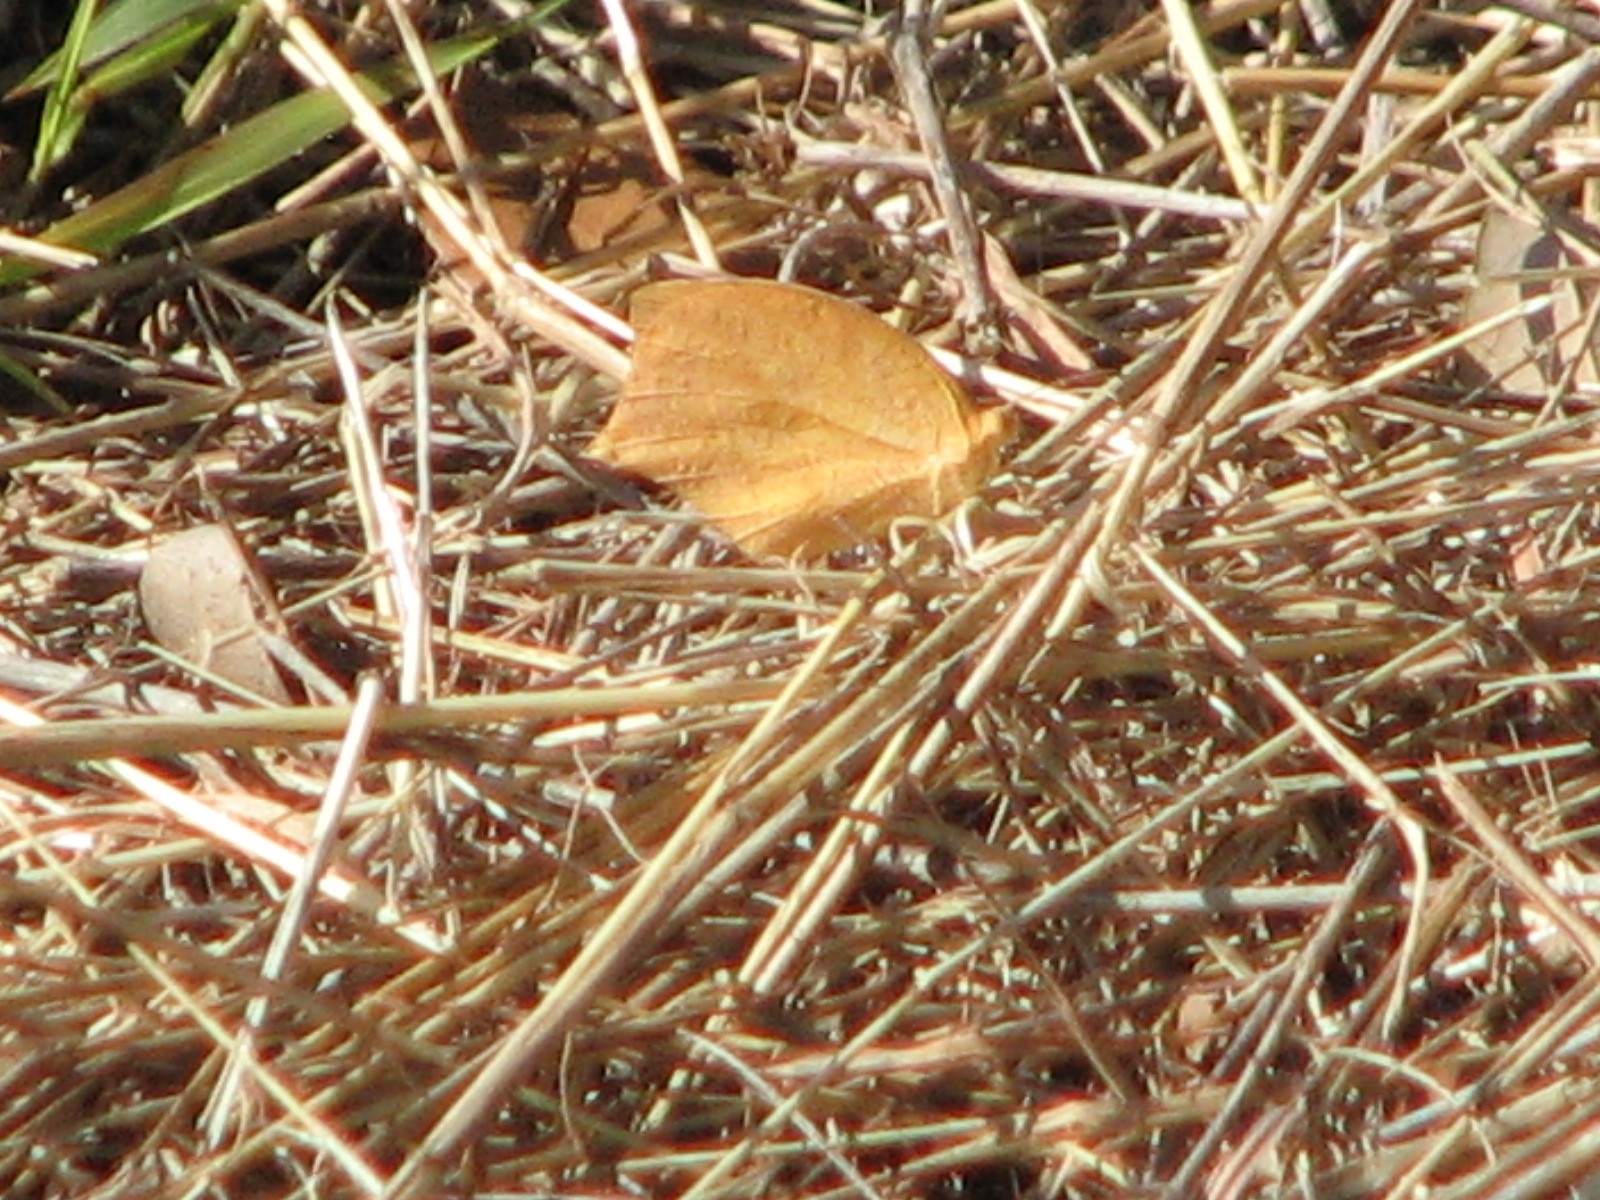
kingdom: Animalia
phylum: Arthropoda
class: Insecta
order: Lepidoptera
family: Pieridae
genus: Pyrisitia
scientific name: Pyrisitia proterpia
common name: Tailed orange
